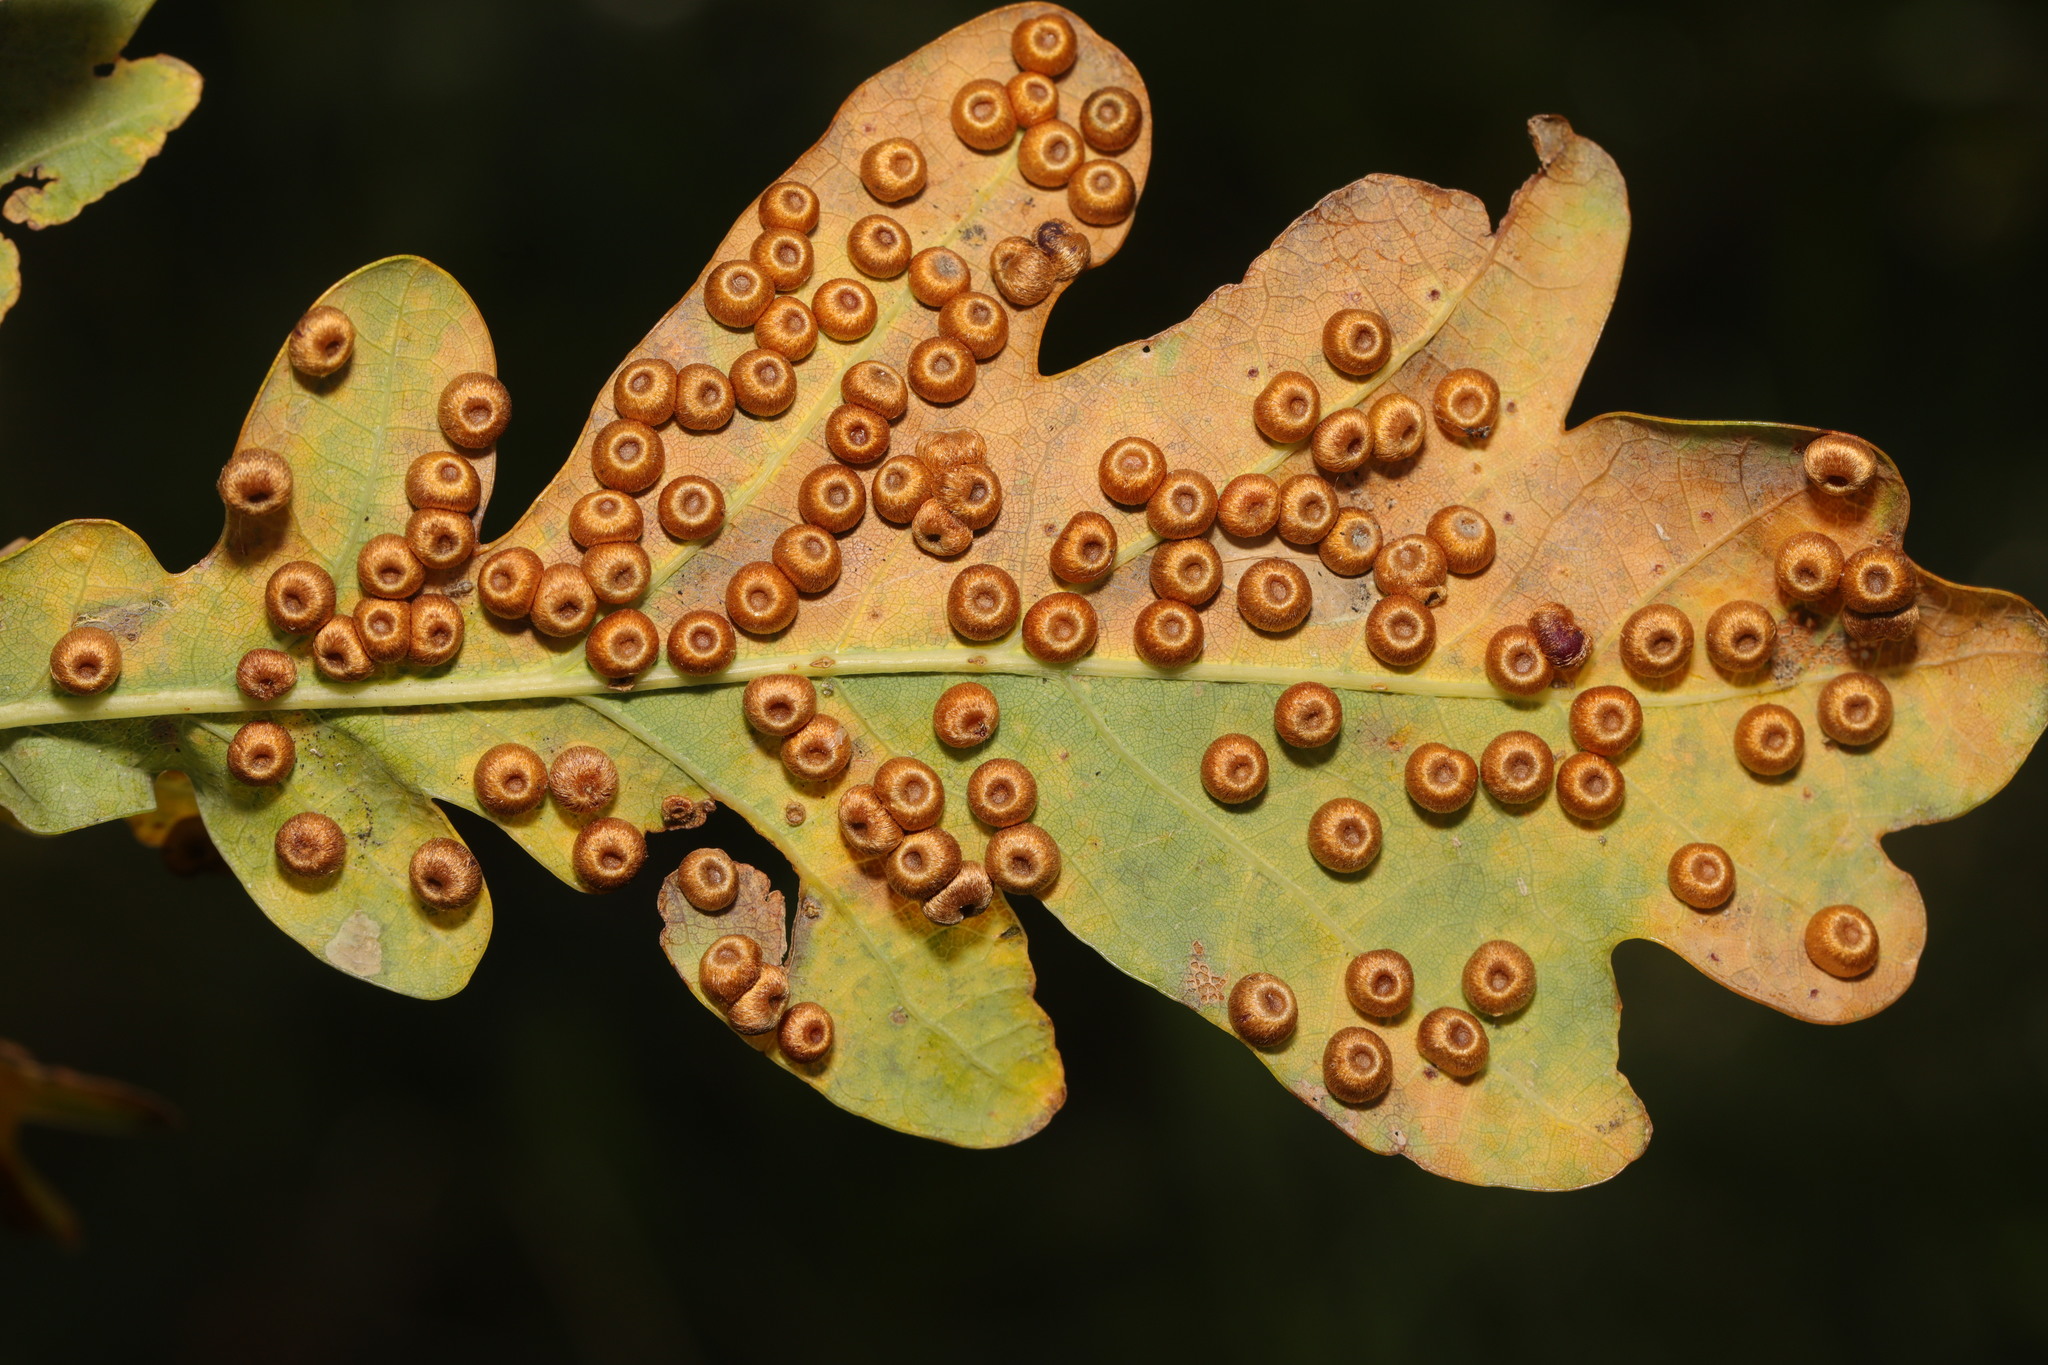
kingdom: Animalia
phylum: Arthropoda
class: Insecta
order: Hymenoptera
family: Cynipidae
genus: Neuroterus
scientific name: Neuroterus numismalis
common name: Silk-button spangle gall
